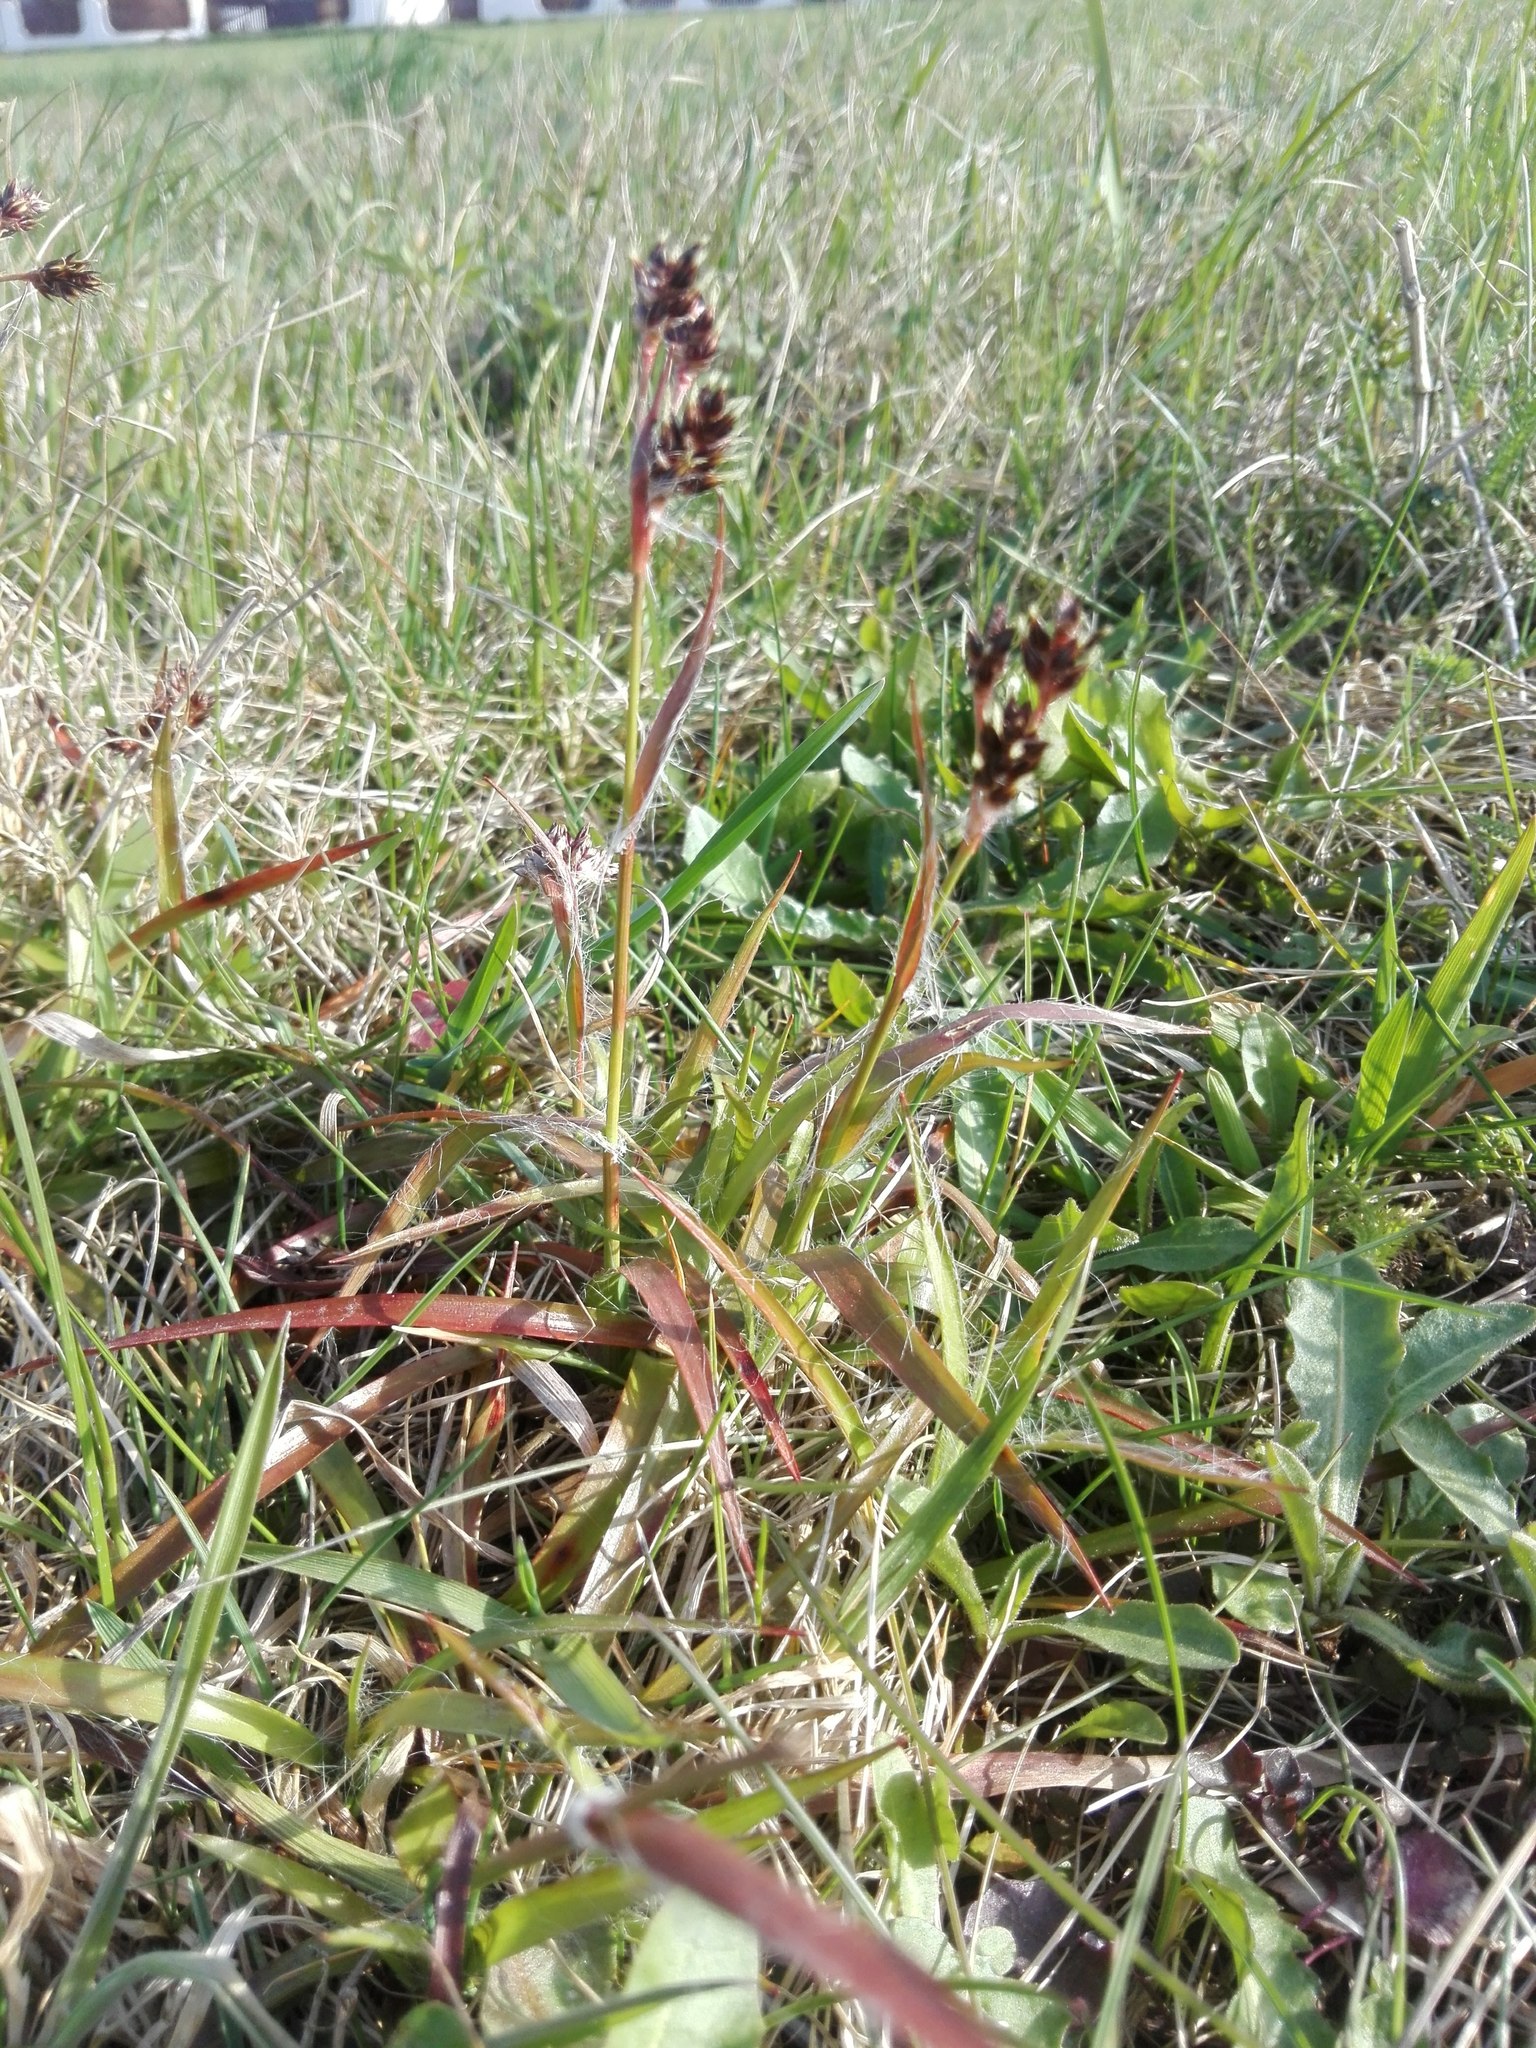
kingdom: Plantae
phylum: Tracheophyta
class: Liliopsida
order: Poales
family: Juncaceae
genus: Luzula
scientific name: Luzula campestris
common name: Field wood-rush
